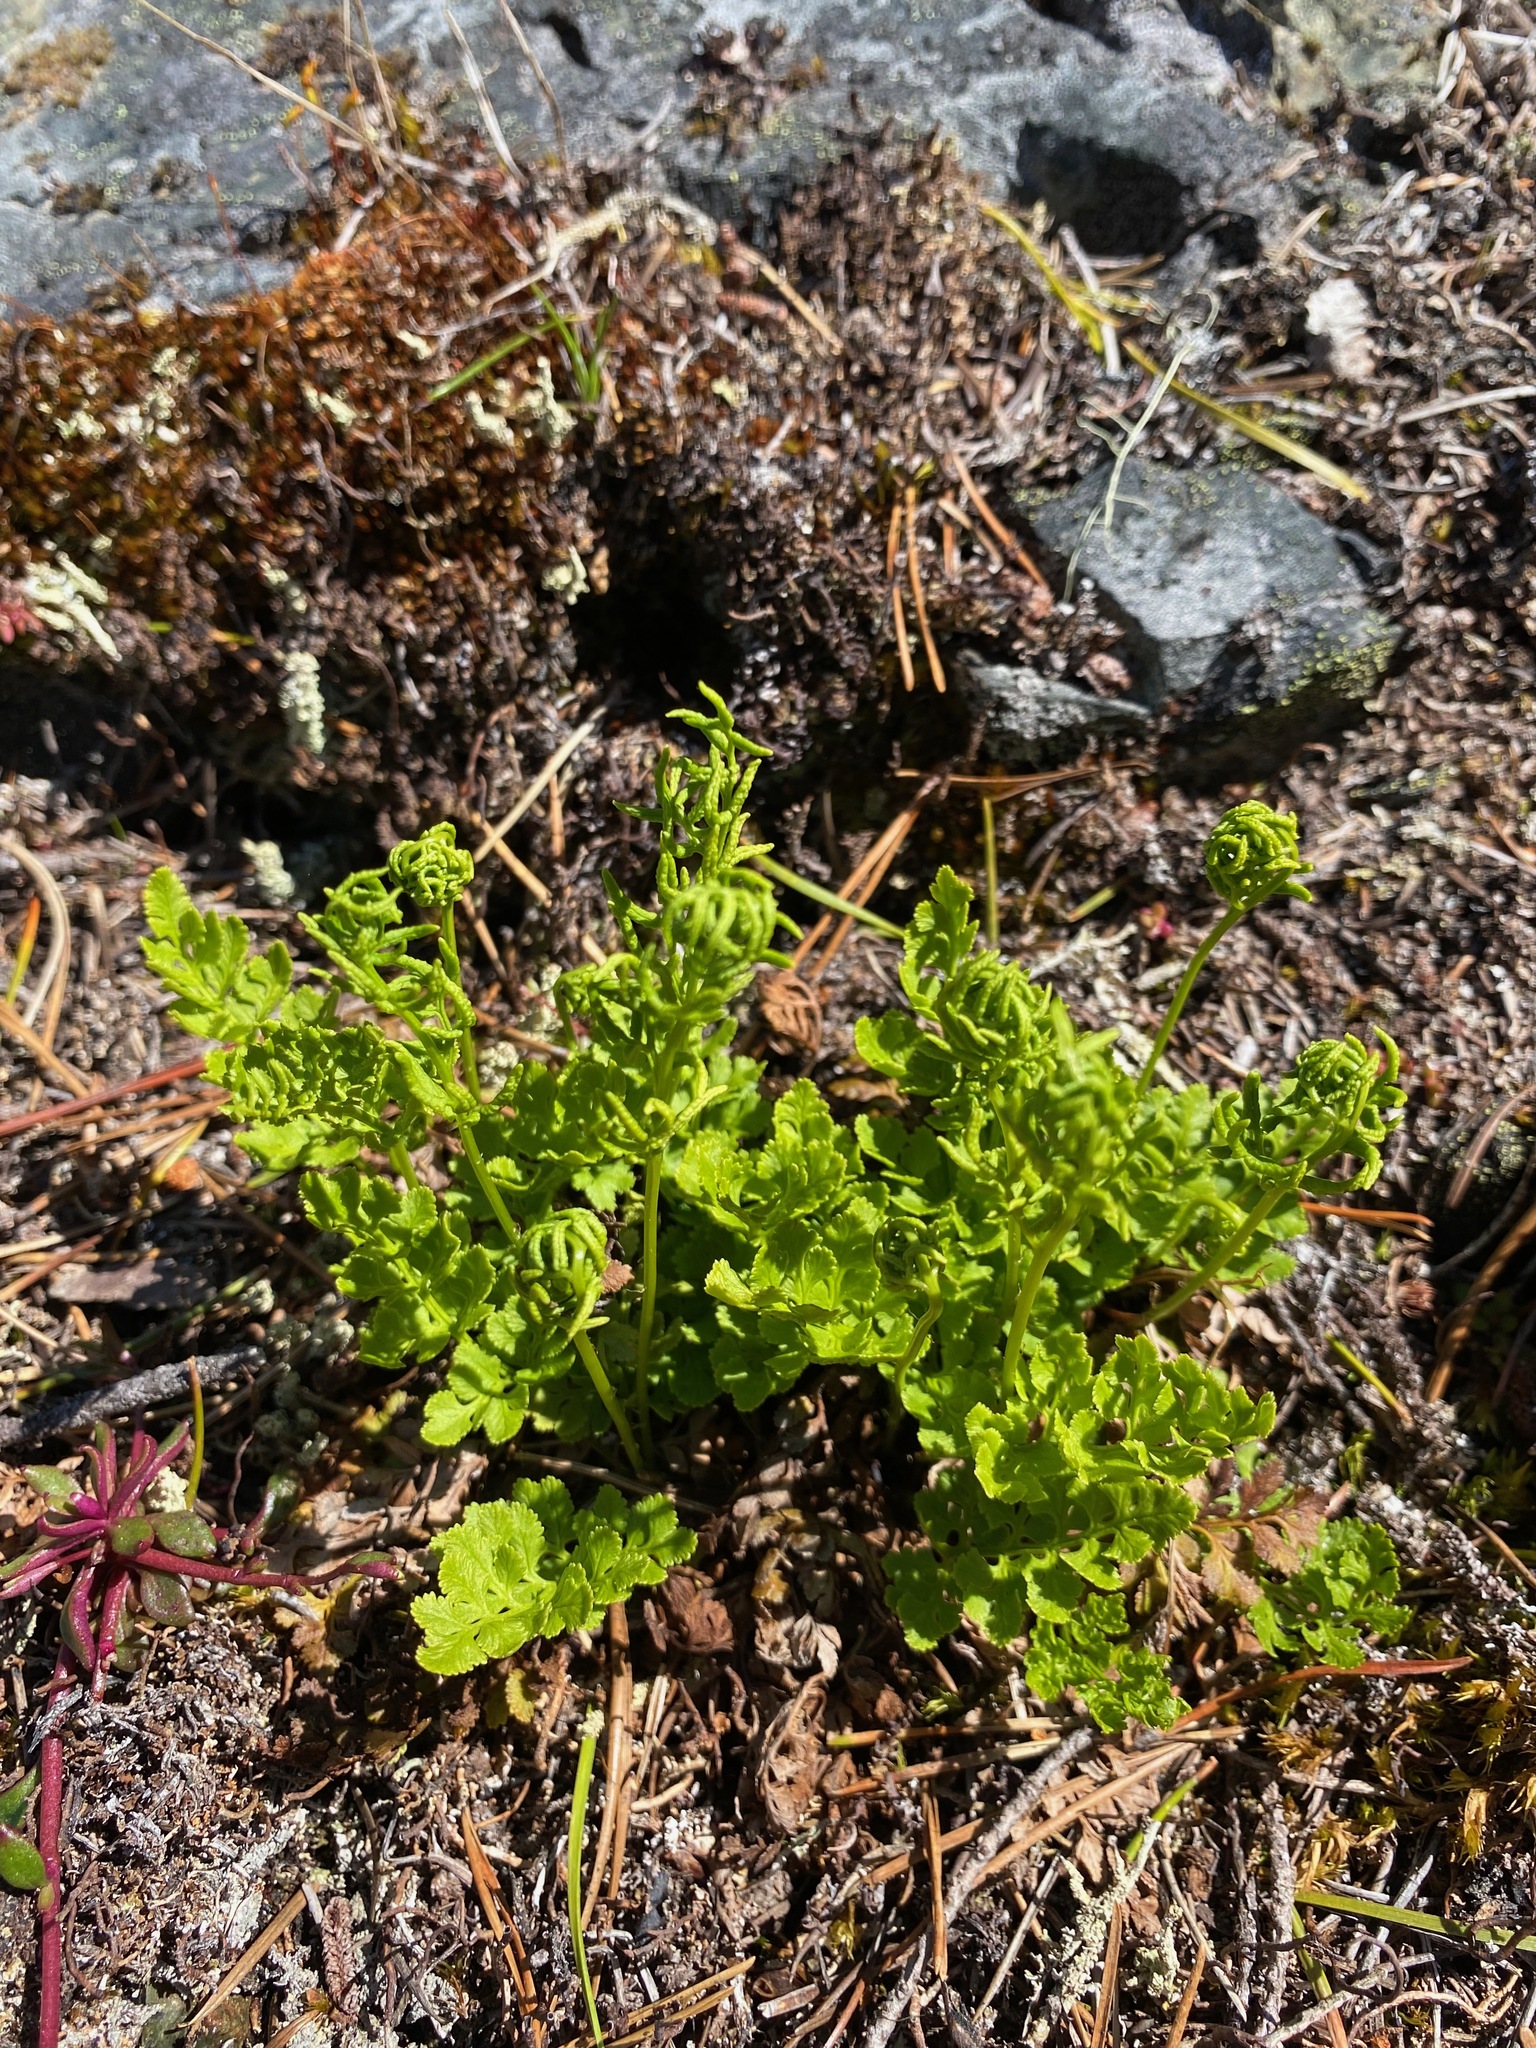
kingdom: Plantae
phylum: Tracheophyta
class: Polypodiopsida
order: Polypodiales
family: Pteridaceae
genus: Cryptogramma
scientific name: Cryptogramma acrostichoides
